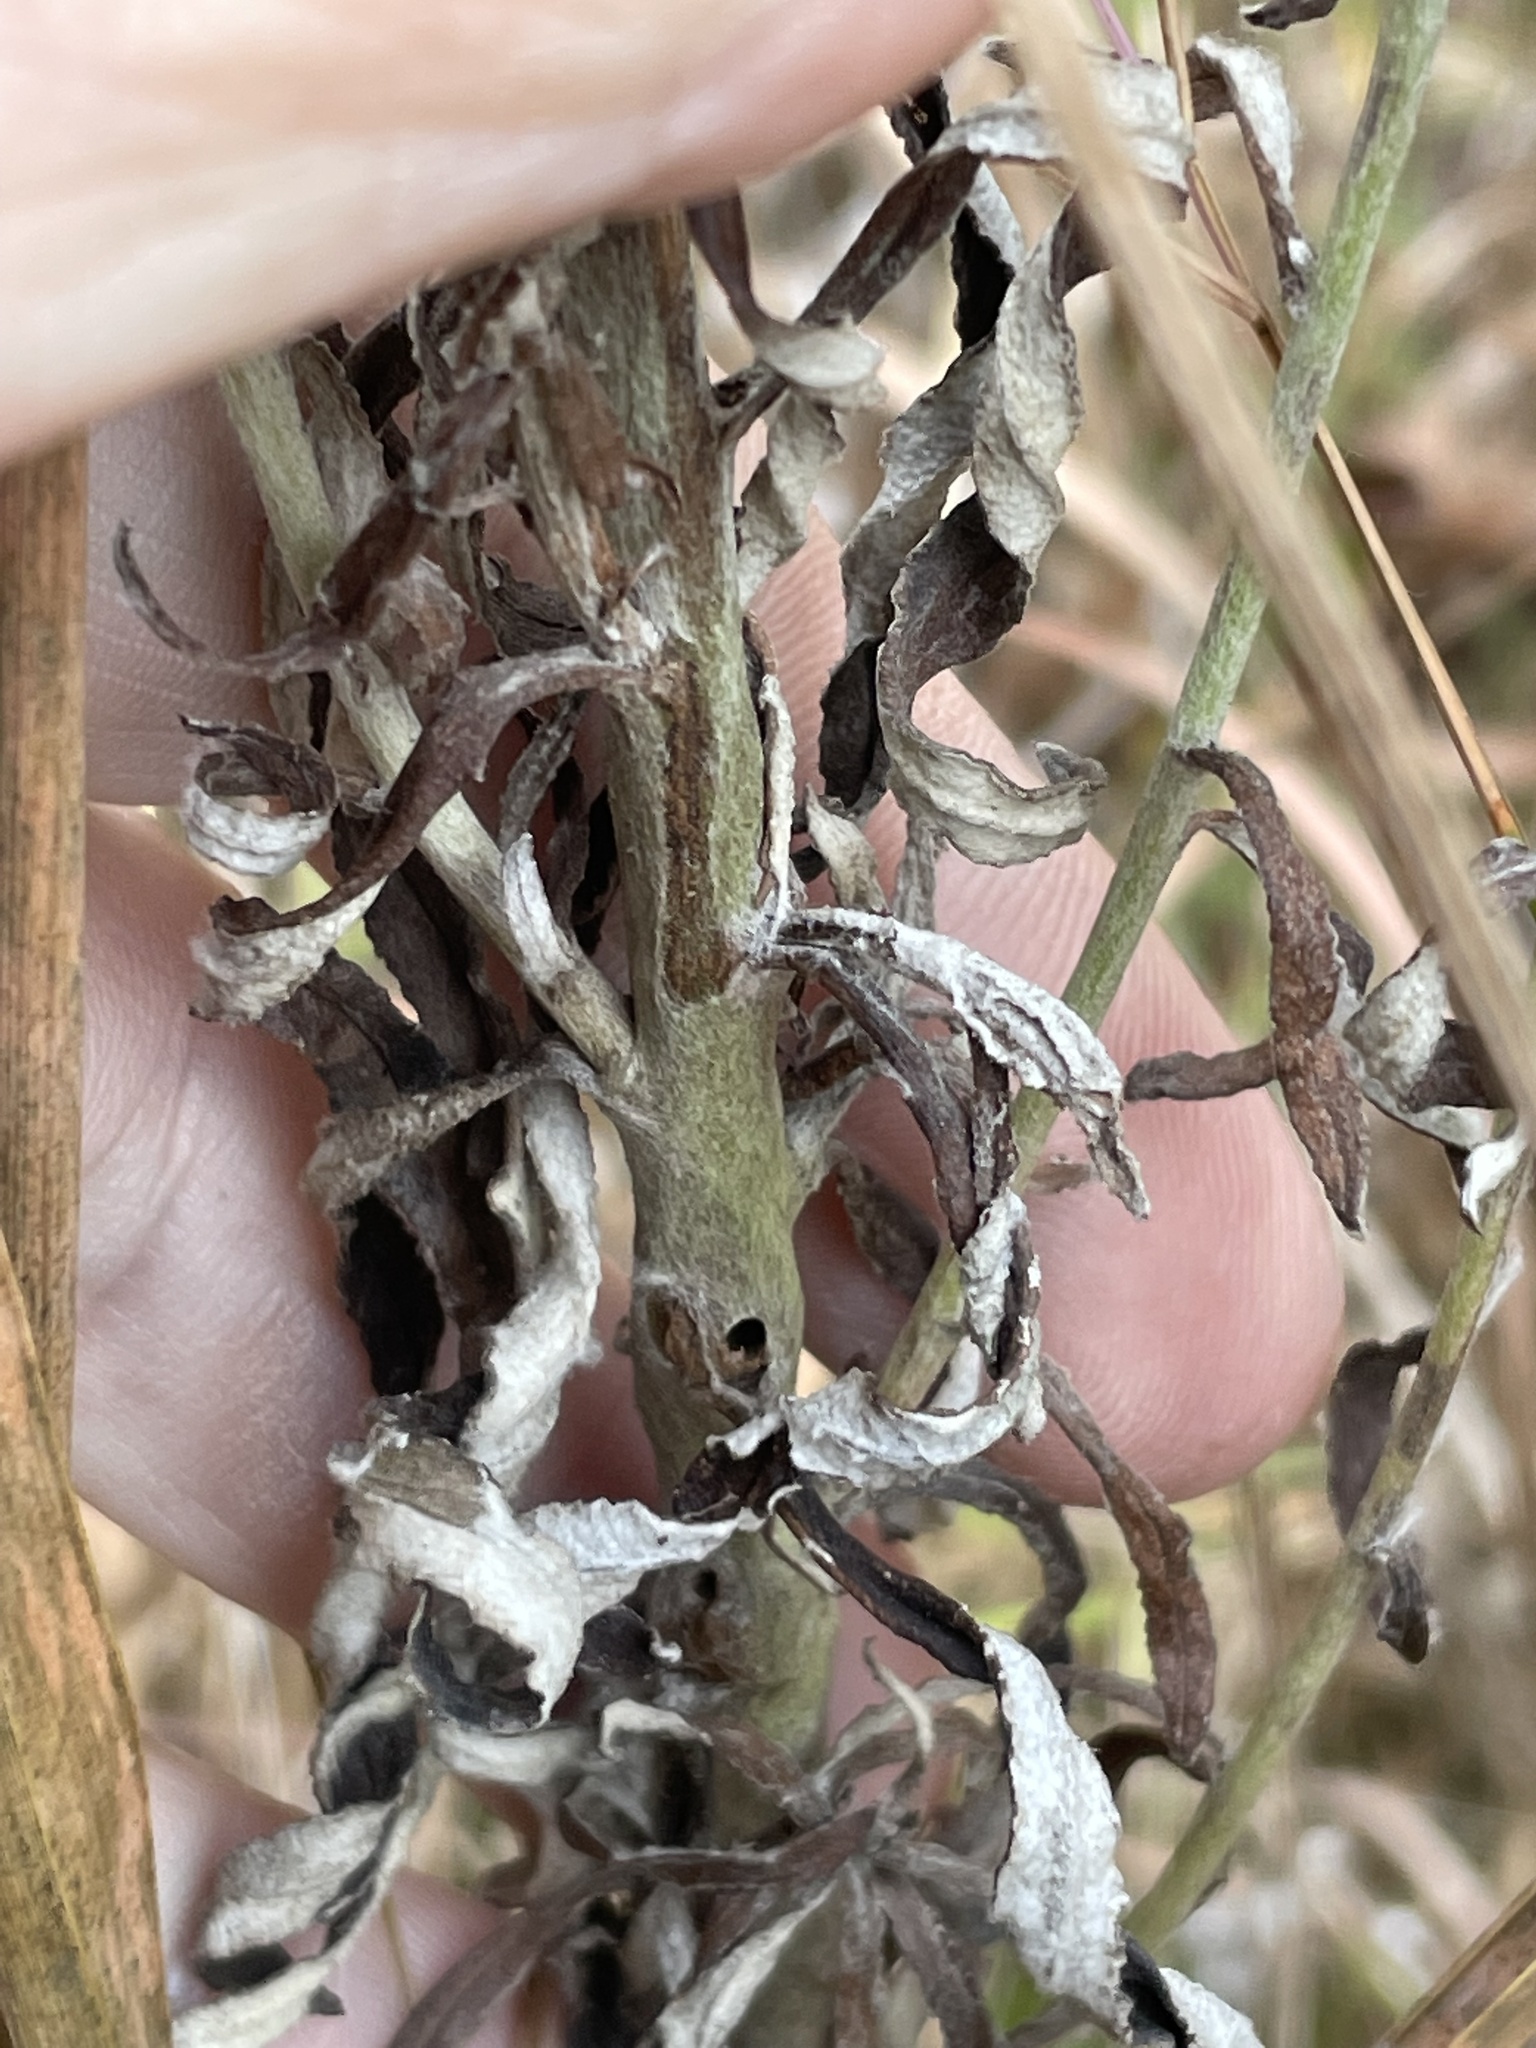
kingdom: Plantae
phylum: Tracheophyta
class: Magnoliopsida
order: Asterales
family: Asteraceae
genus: Pseudognaphalium
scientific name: Pseudognaphalium obtusifolium
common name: Eastern rabbit-tobacco
